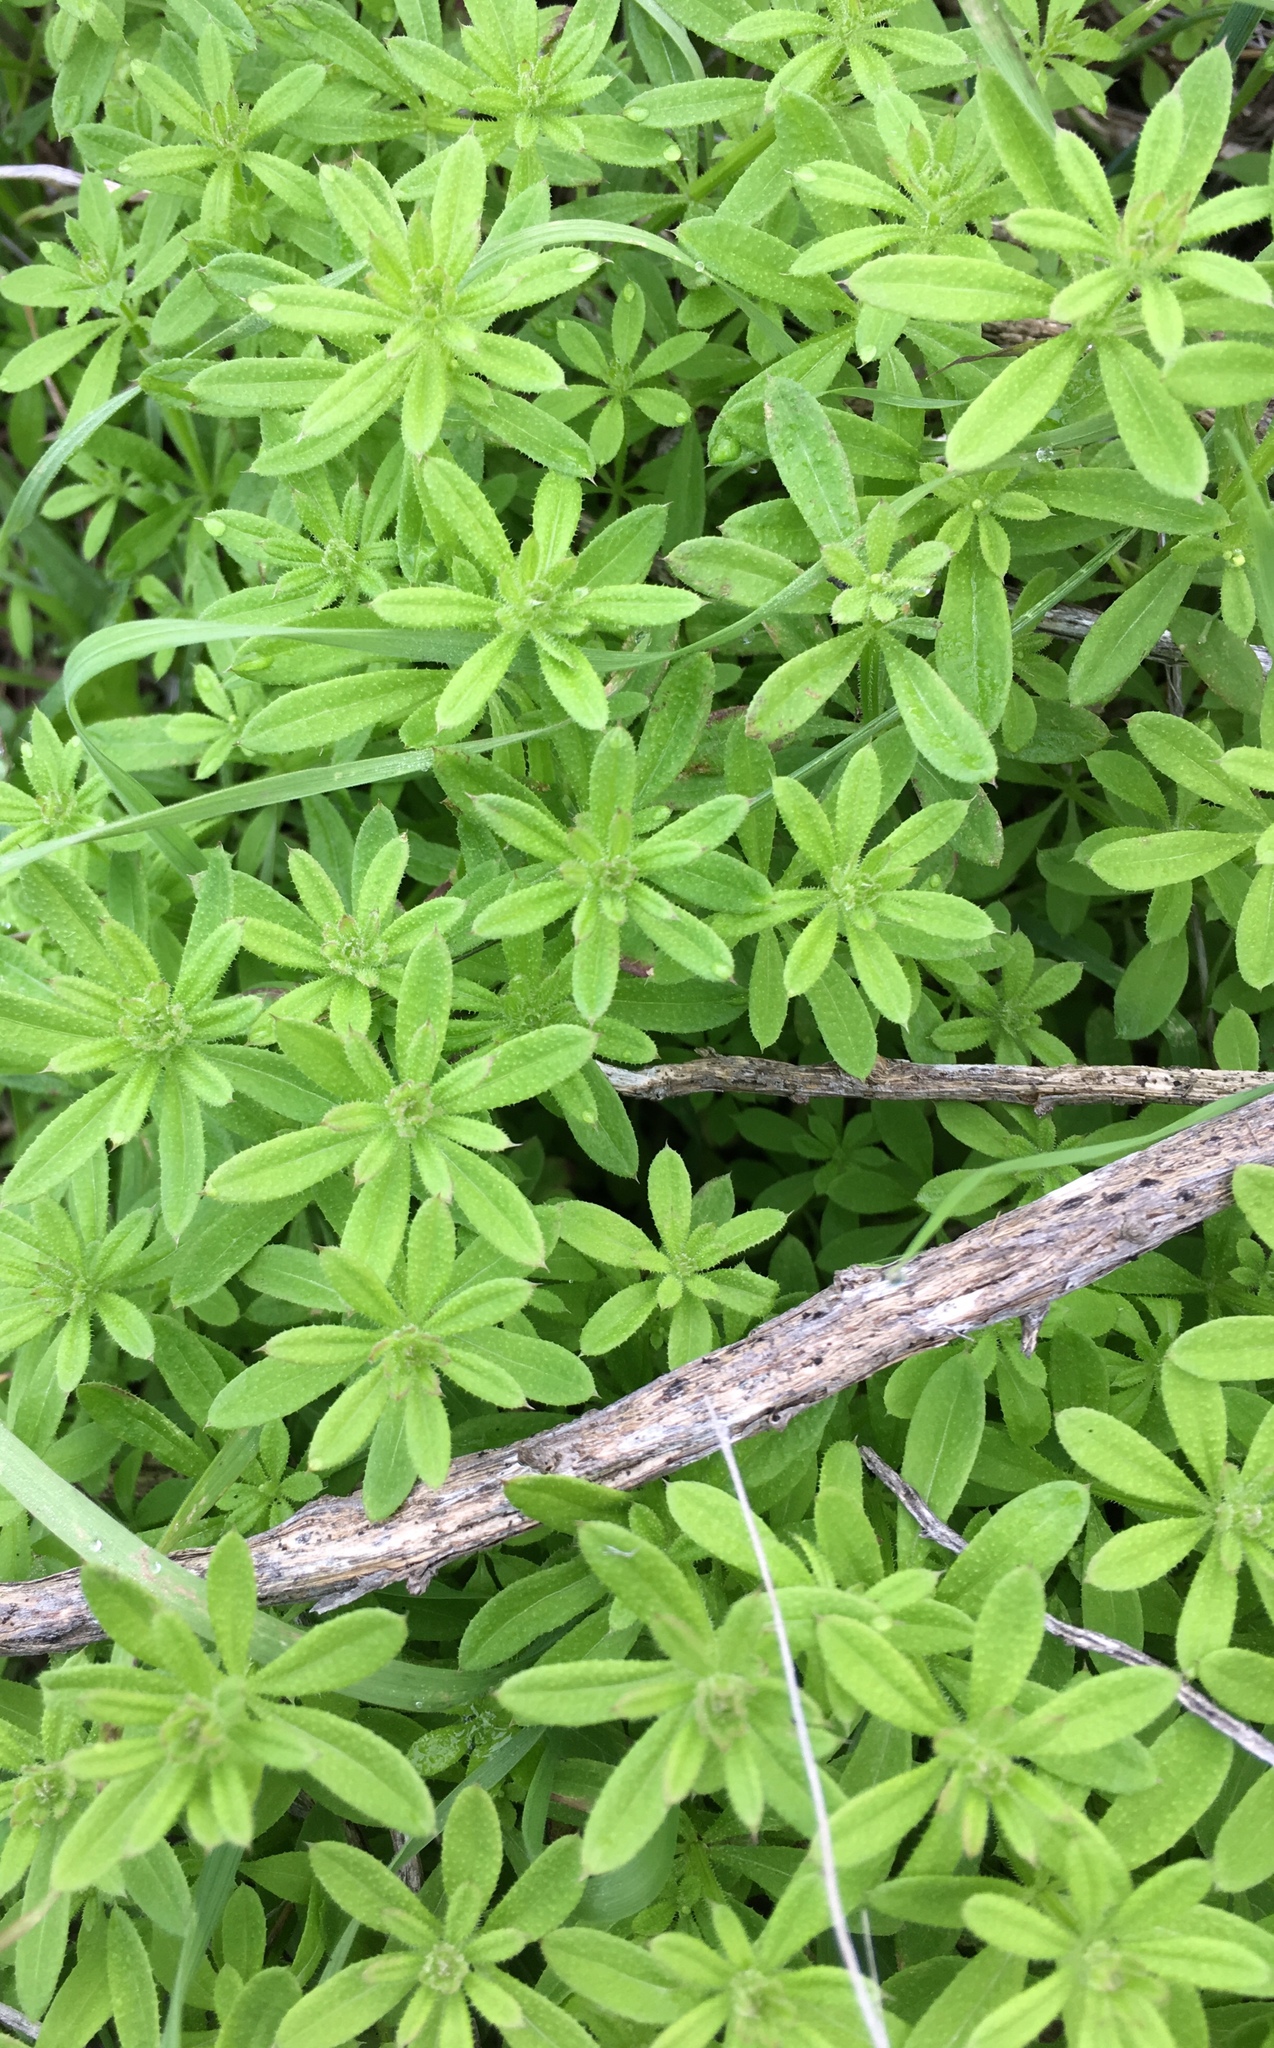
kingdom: Plantae
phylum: Tracheophyta
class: Magnoliopsida
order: Gentianales
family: Rubiaceae
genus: Galium
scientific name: Galium aparine
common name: Cleavers
